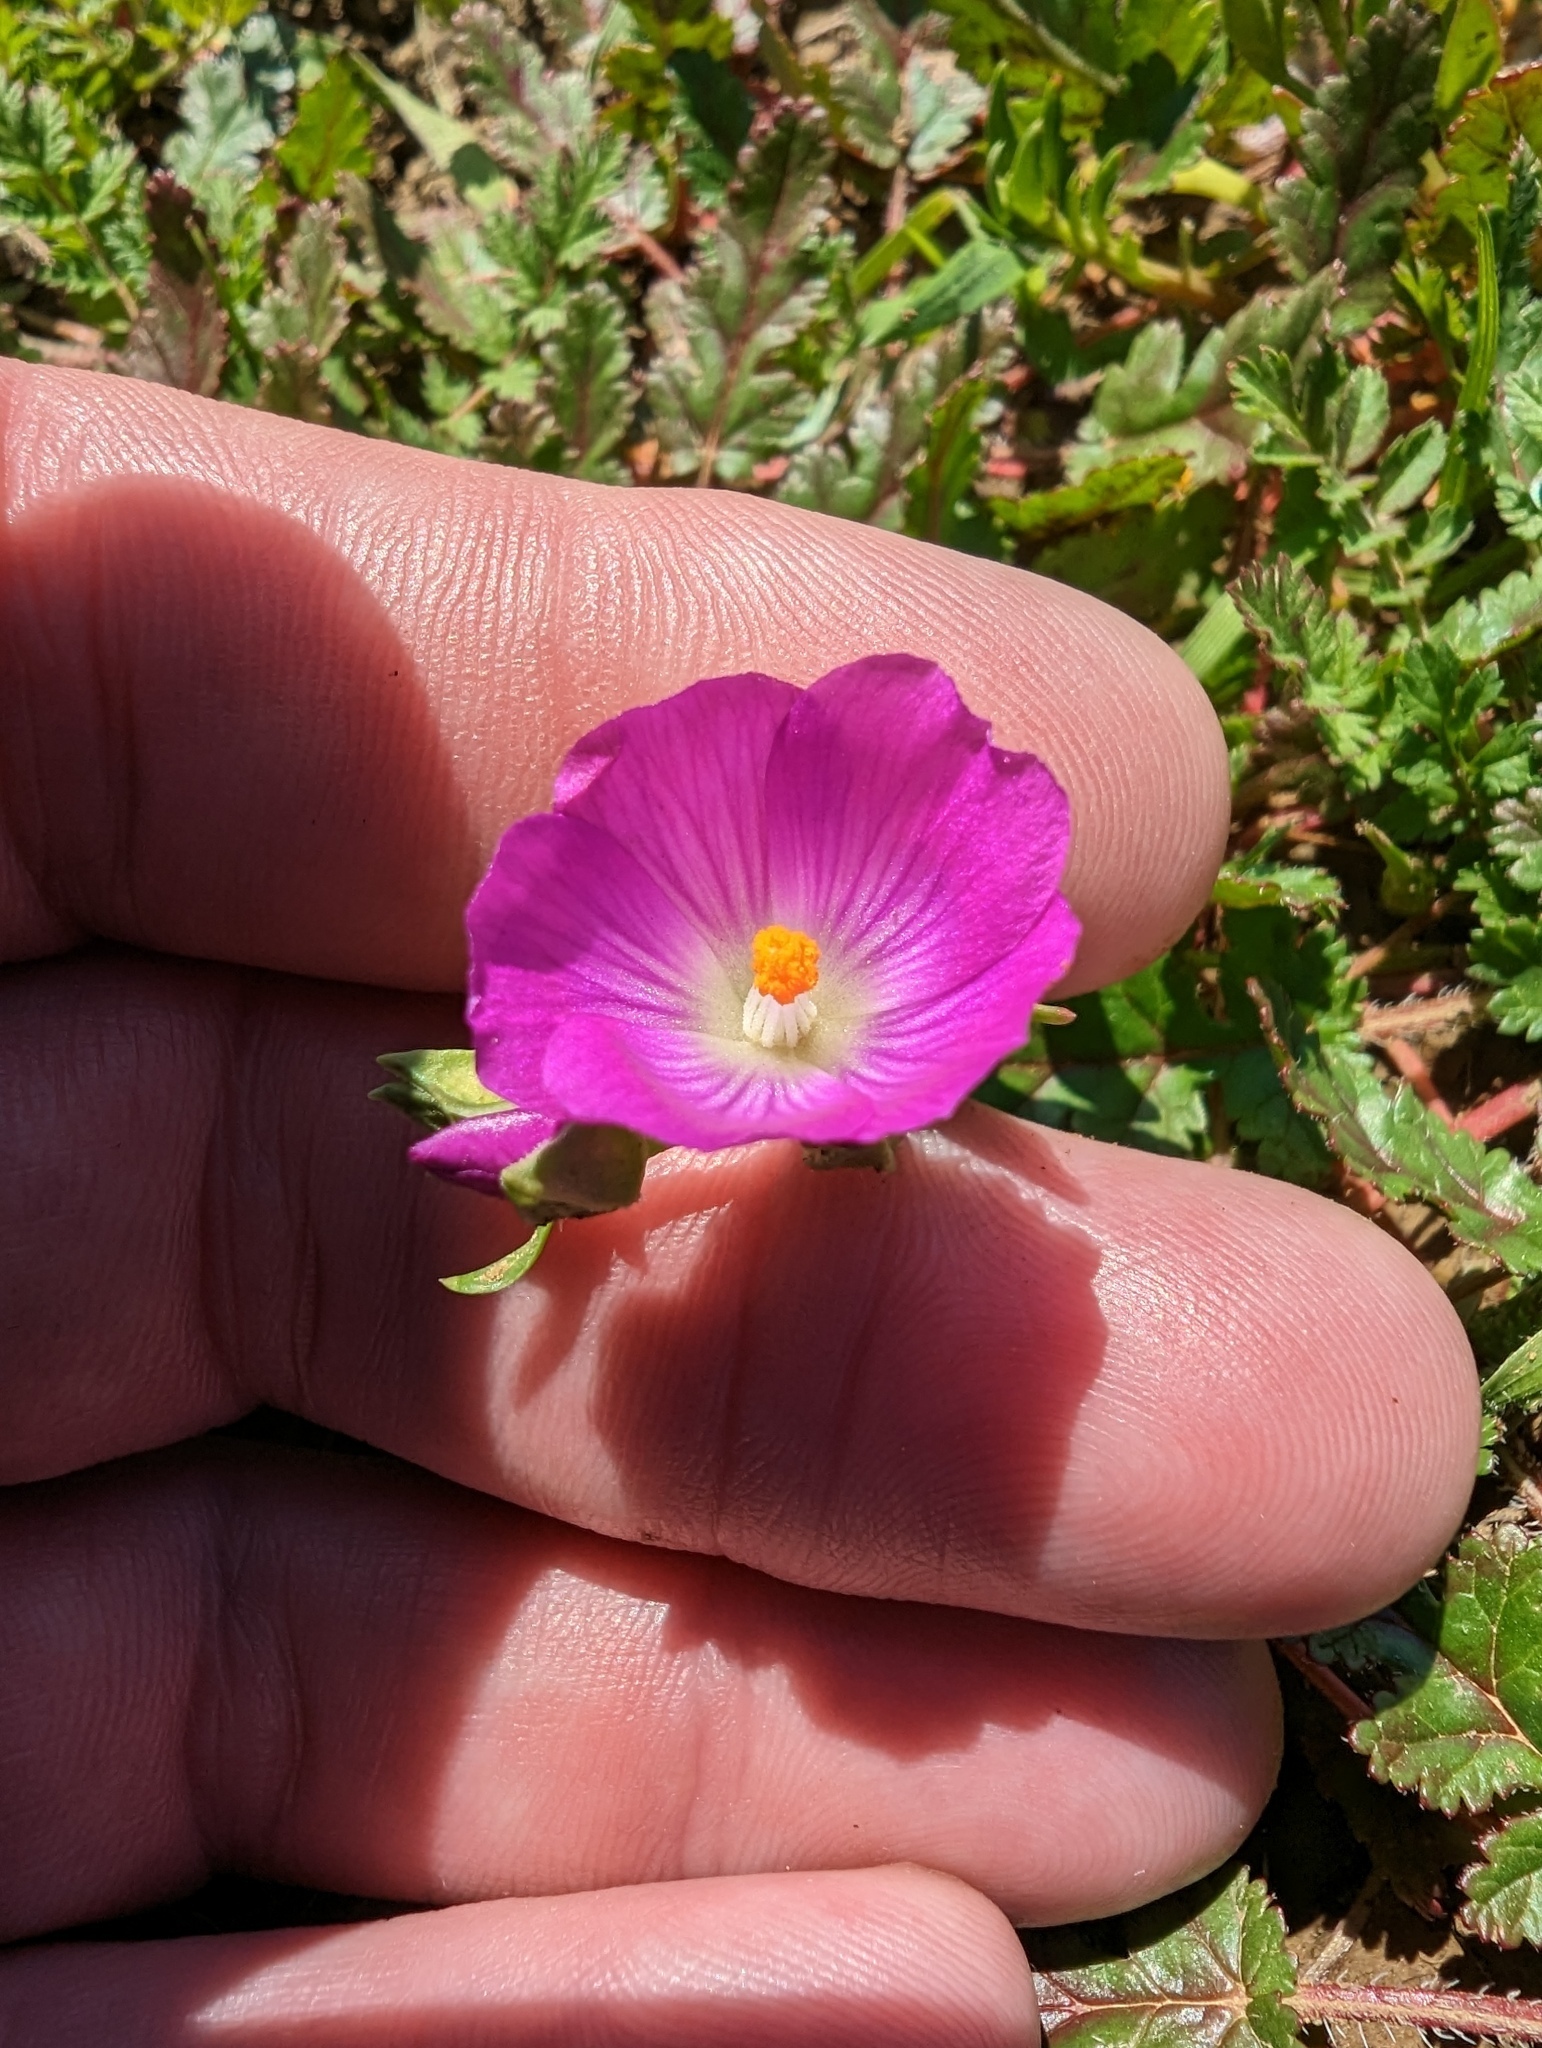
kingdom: Plantae
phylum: Tracheophyta
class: Magnoliopsida
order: Caryophyllales
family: Montiaceae
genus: Calandrinia
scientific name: Calandrinia menziesii
